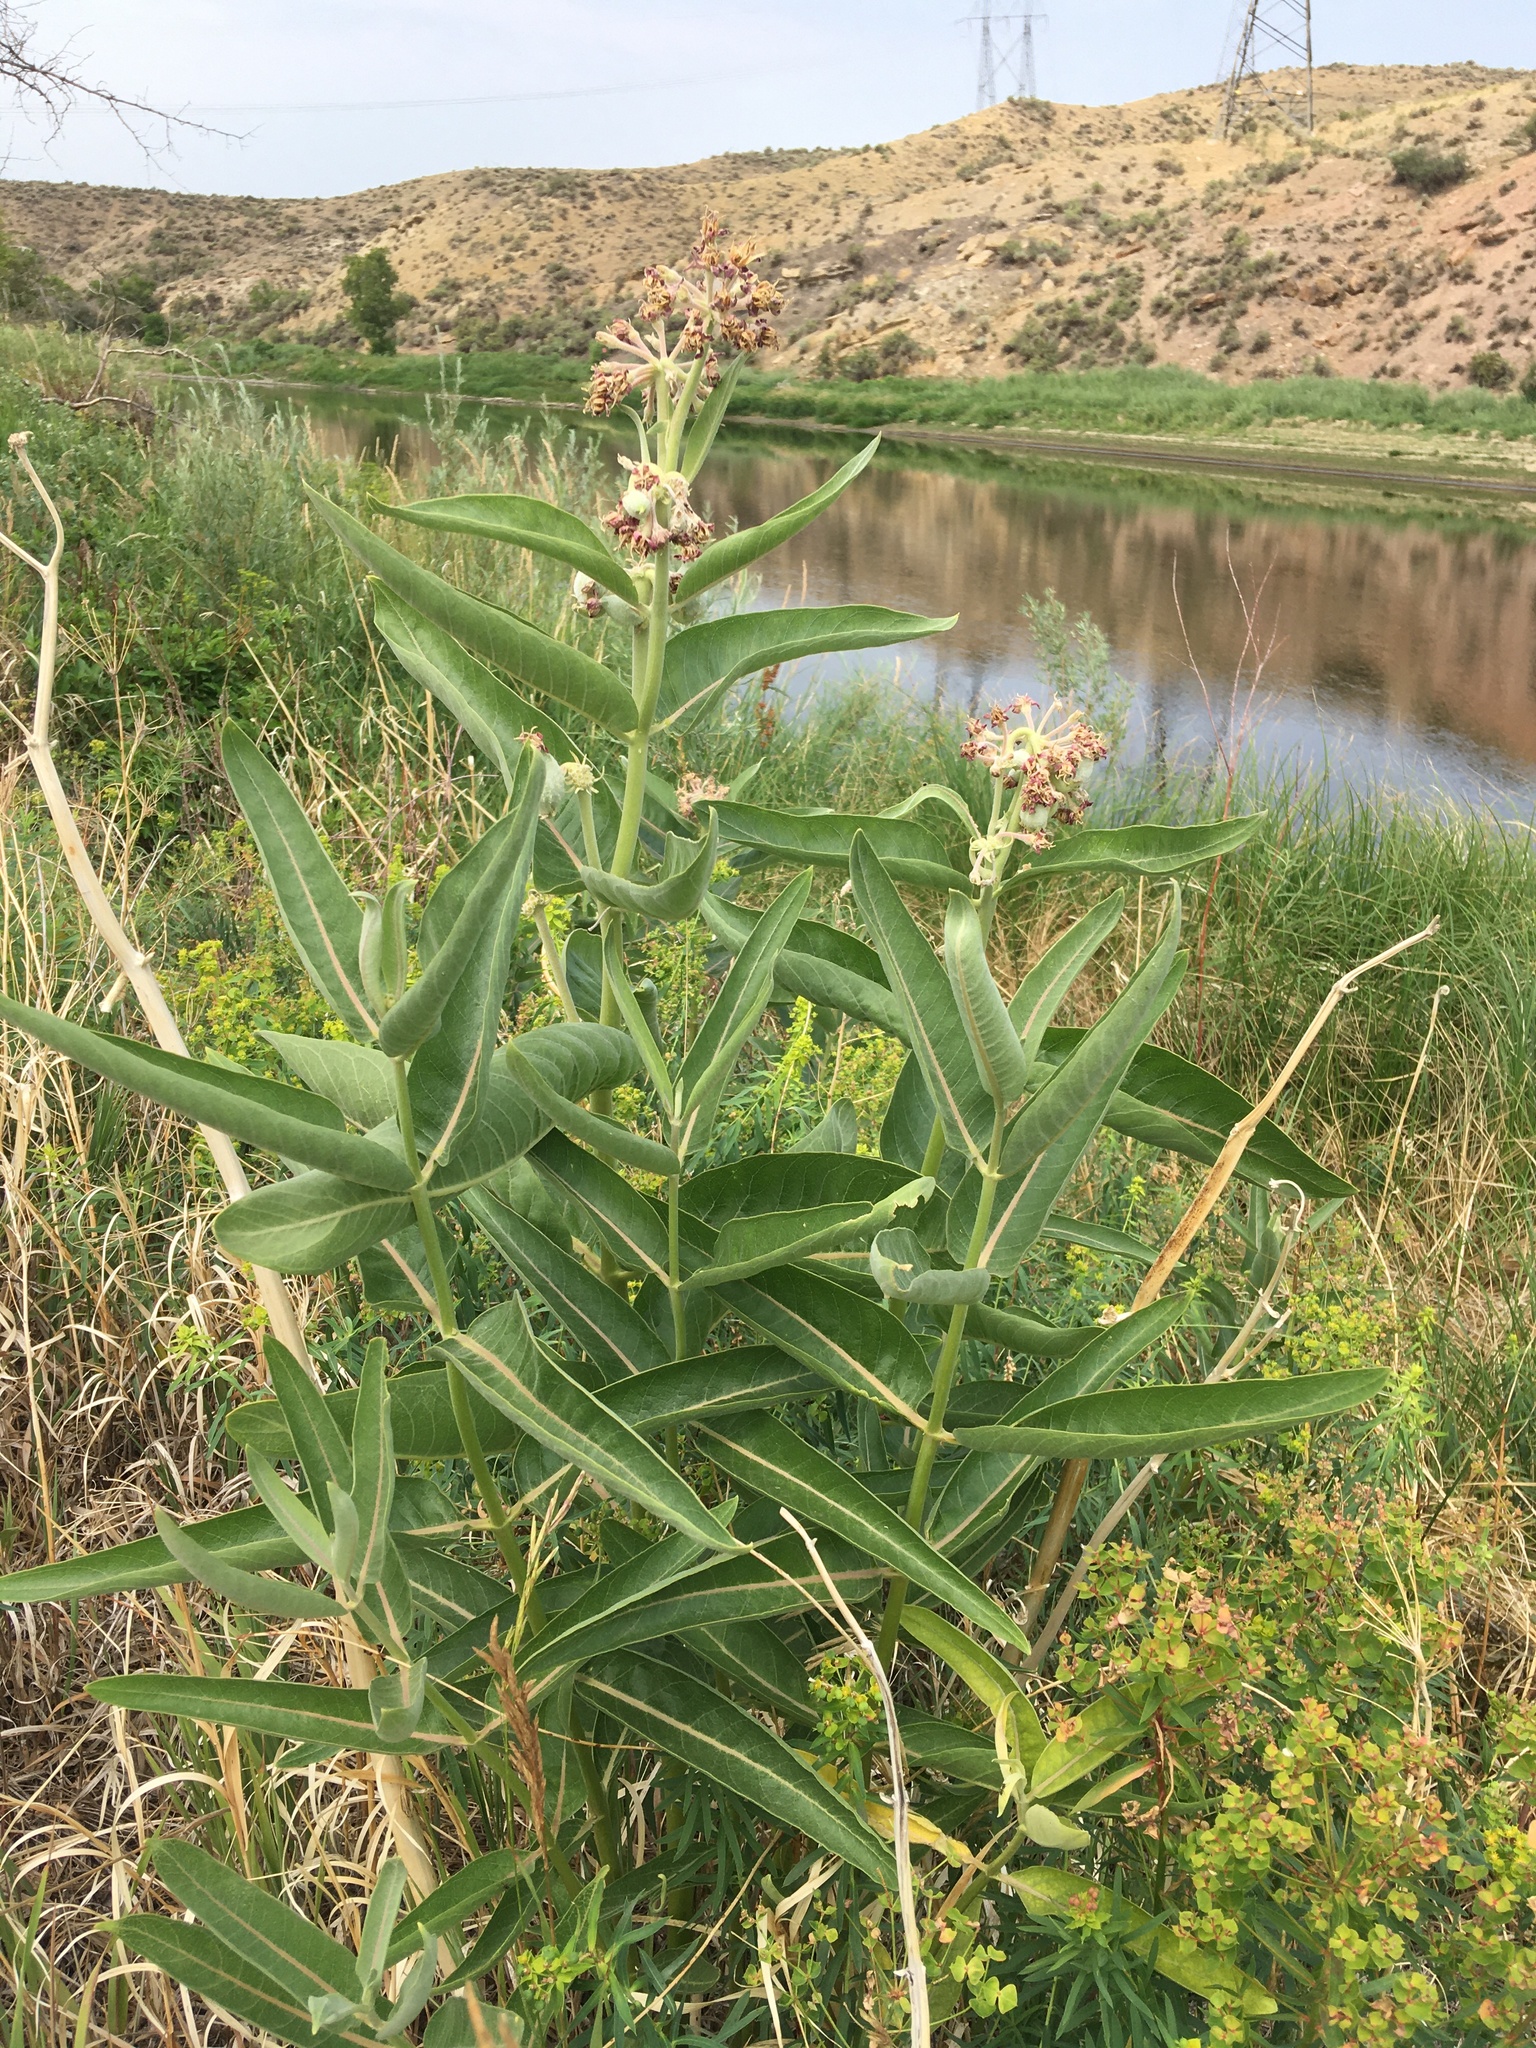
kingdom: Plantae
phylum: Tracheophyta
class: Magnoliopsida
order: Gentianales
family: Apocynaceae
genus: Asclepias
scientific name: Asclepias speciosa
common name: Showy milkweed
